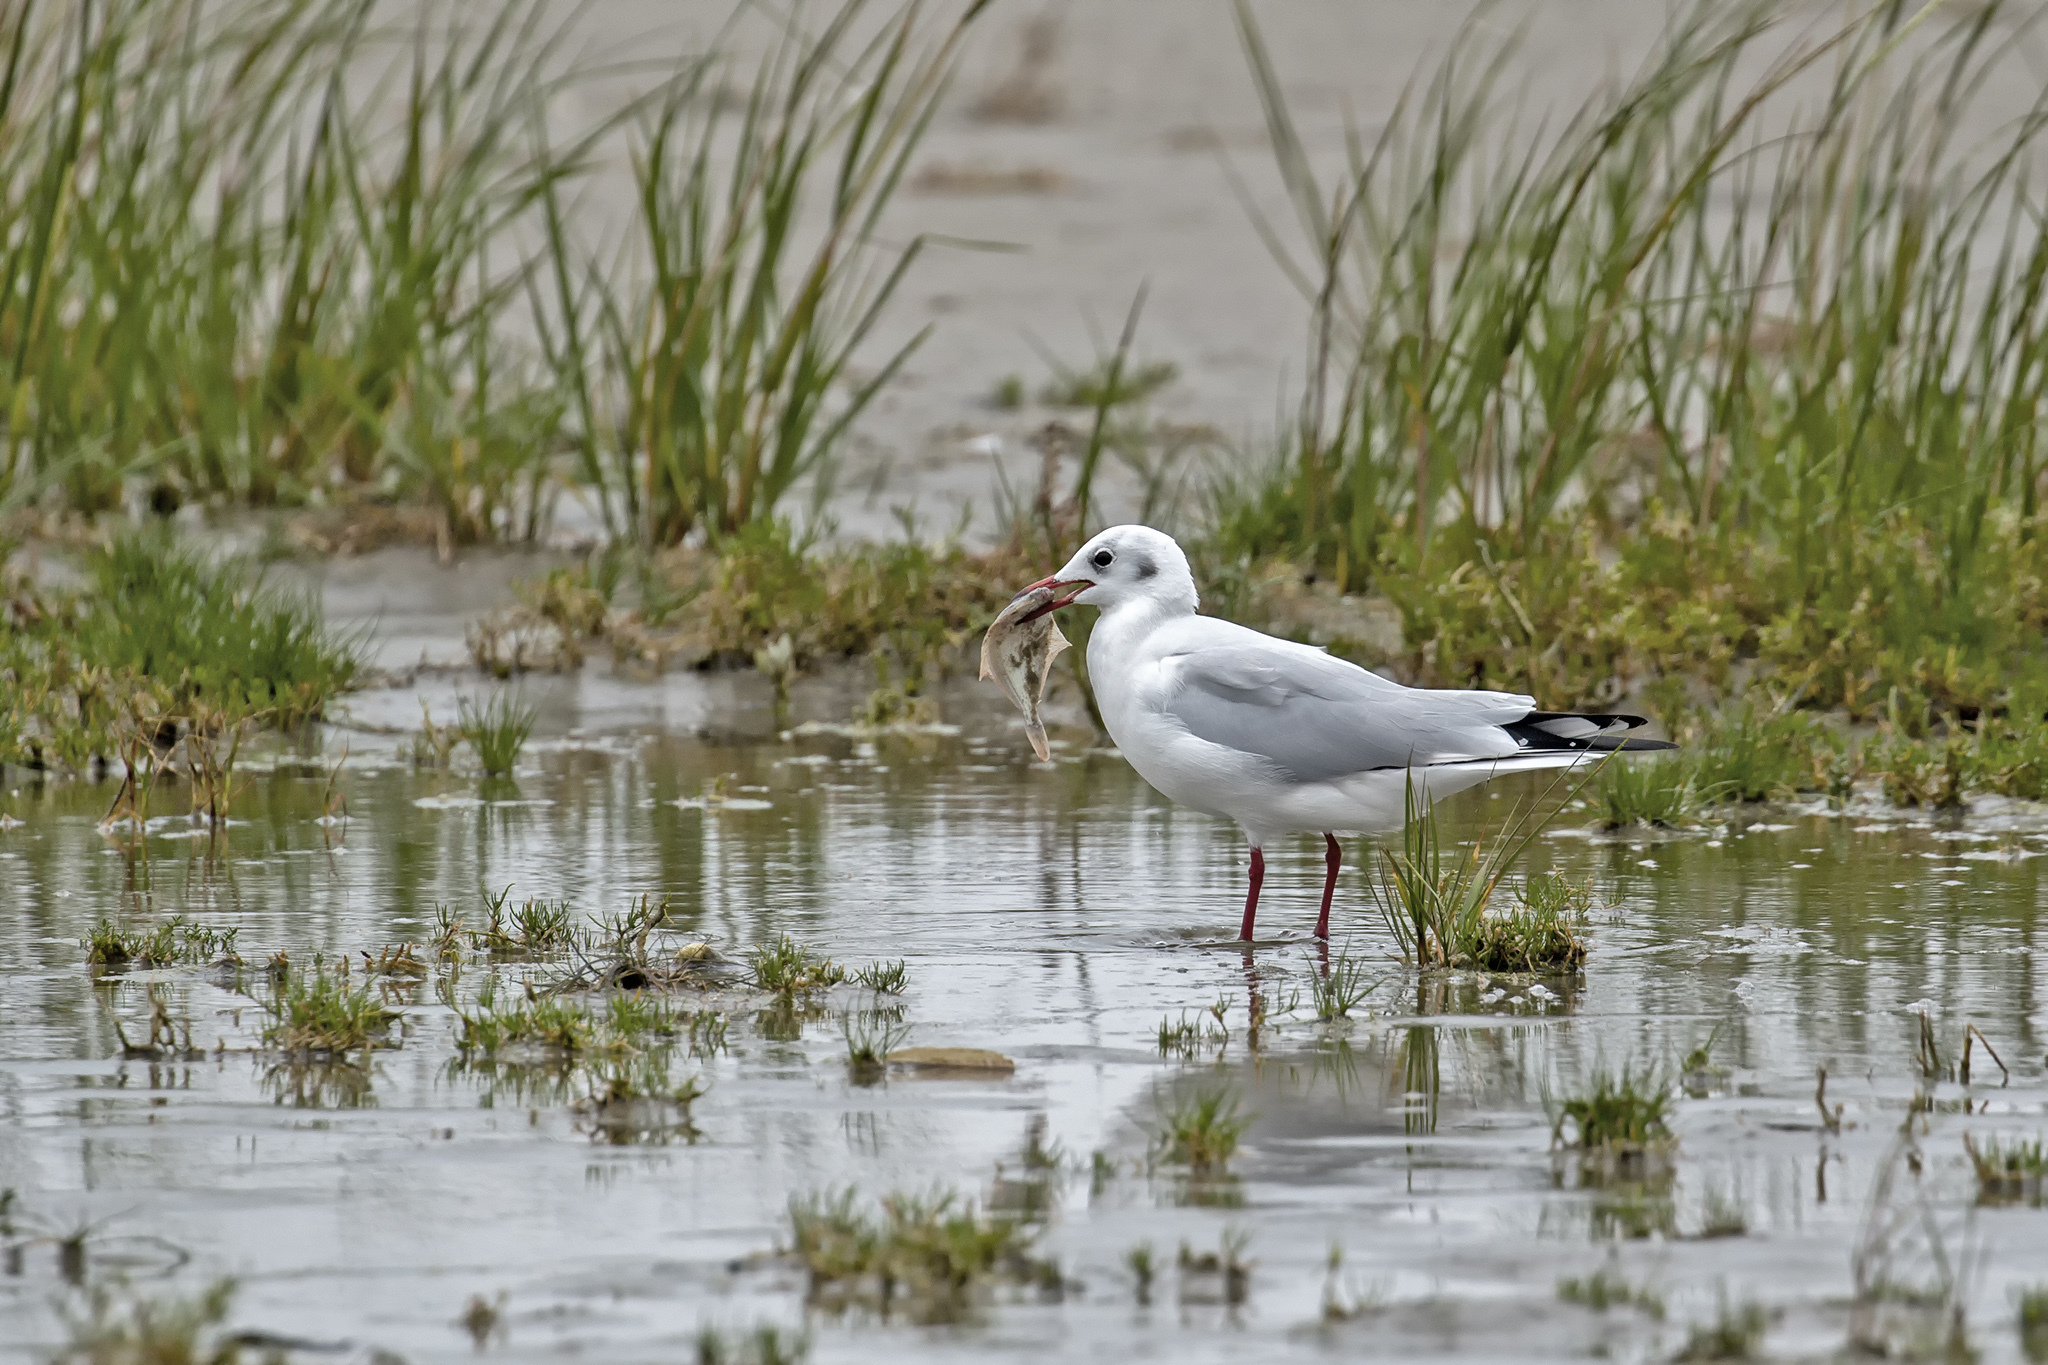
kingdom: Animalia
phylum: Chordata
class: Aves
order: Charadriiformes
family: Laridae
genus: Chroicocephalus
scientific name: Chroicocephalus ridibundus
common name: Black-headed gull
